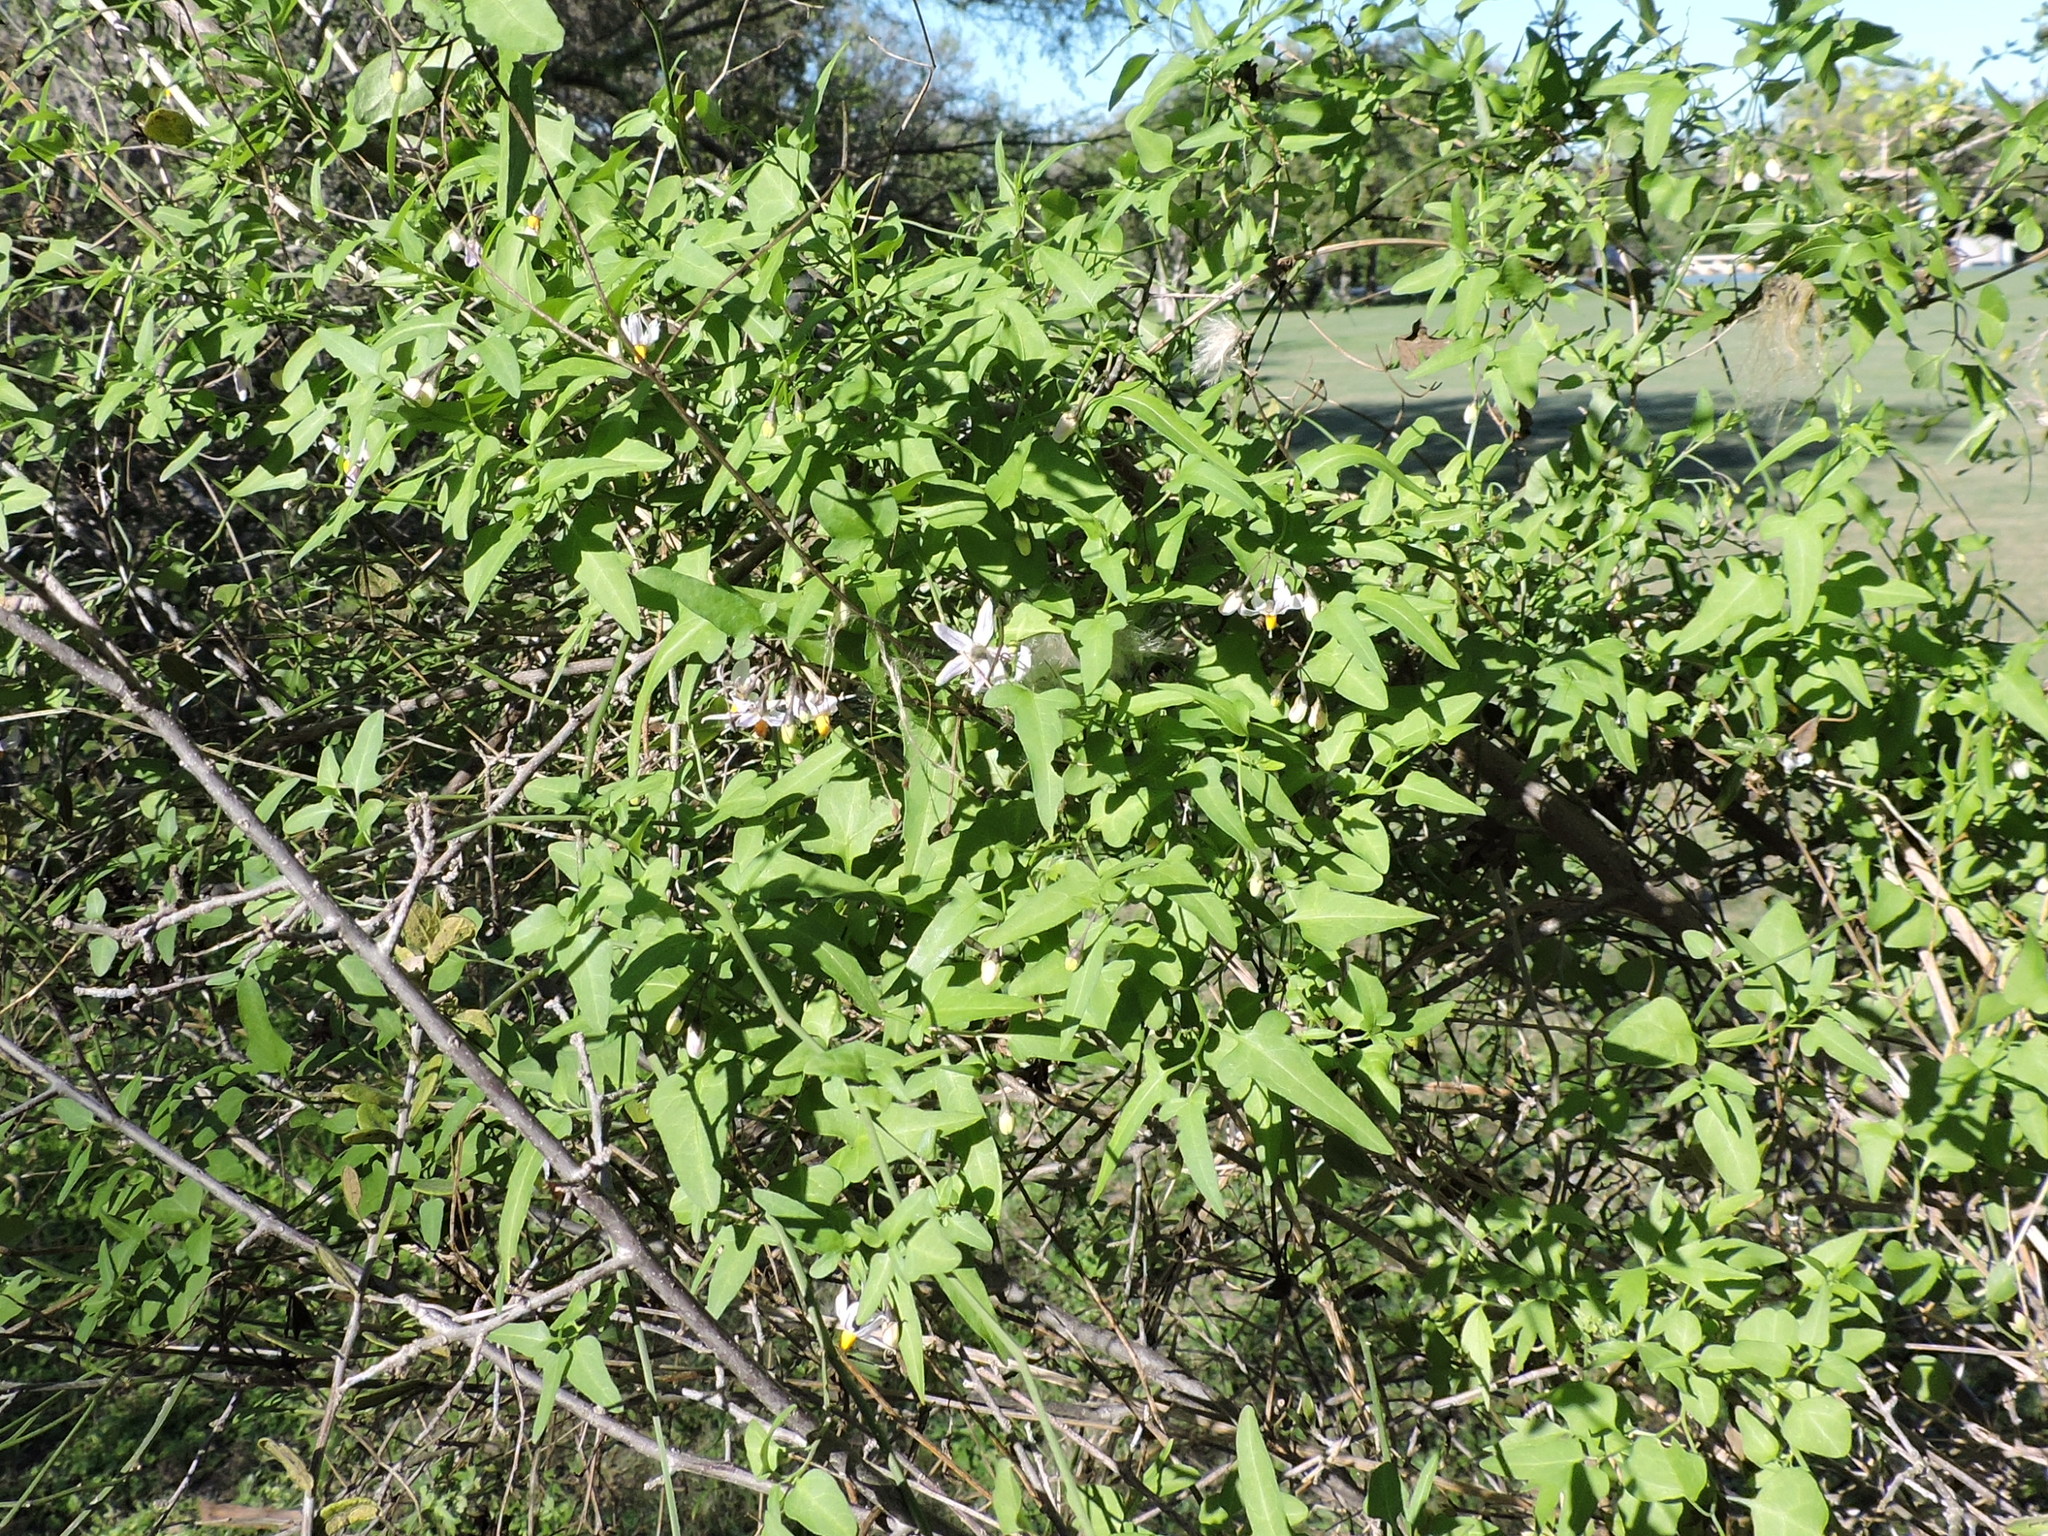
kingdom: Plantae
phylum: Tracheophyta
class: Magnoliopsida
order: Solanales
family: Solanaceae
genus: Solanum
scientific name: Solanum triquetrum
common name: Texas nightshade
